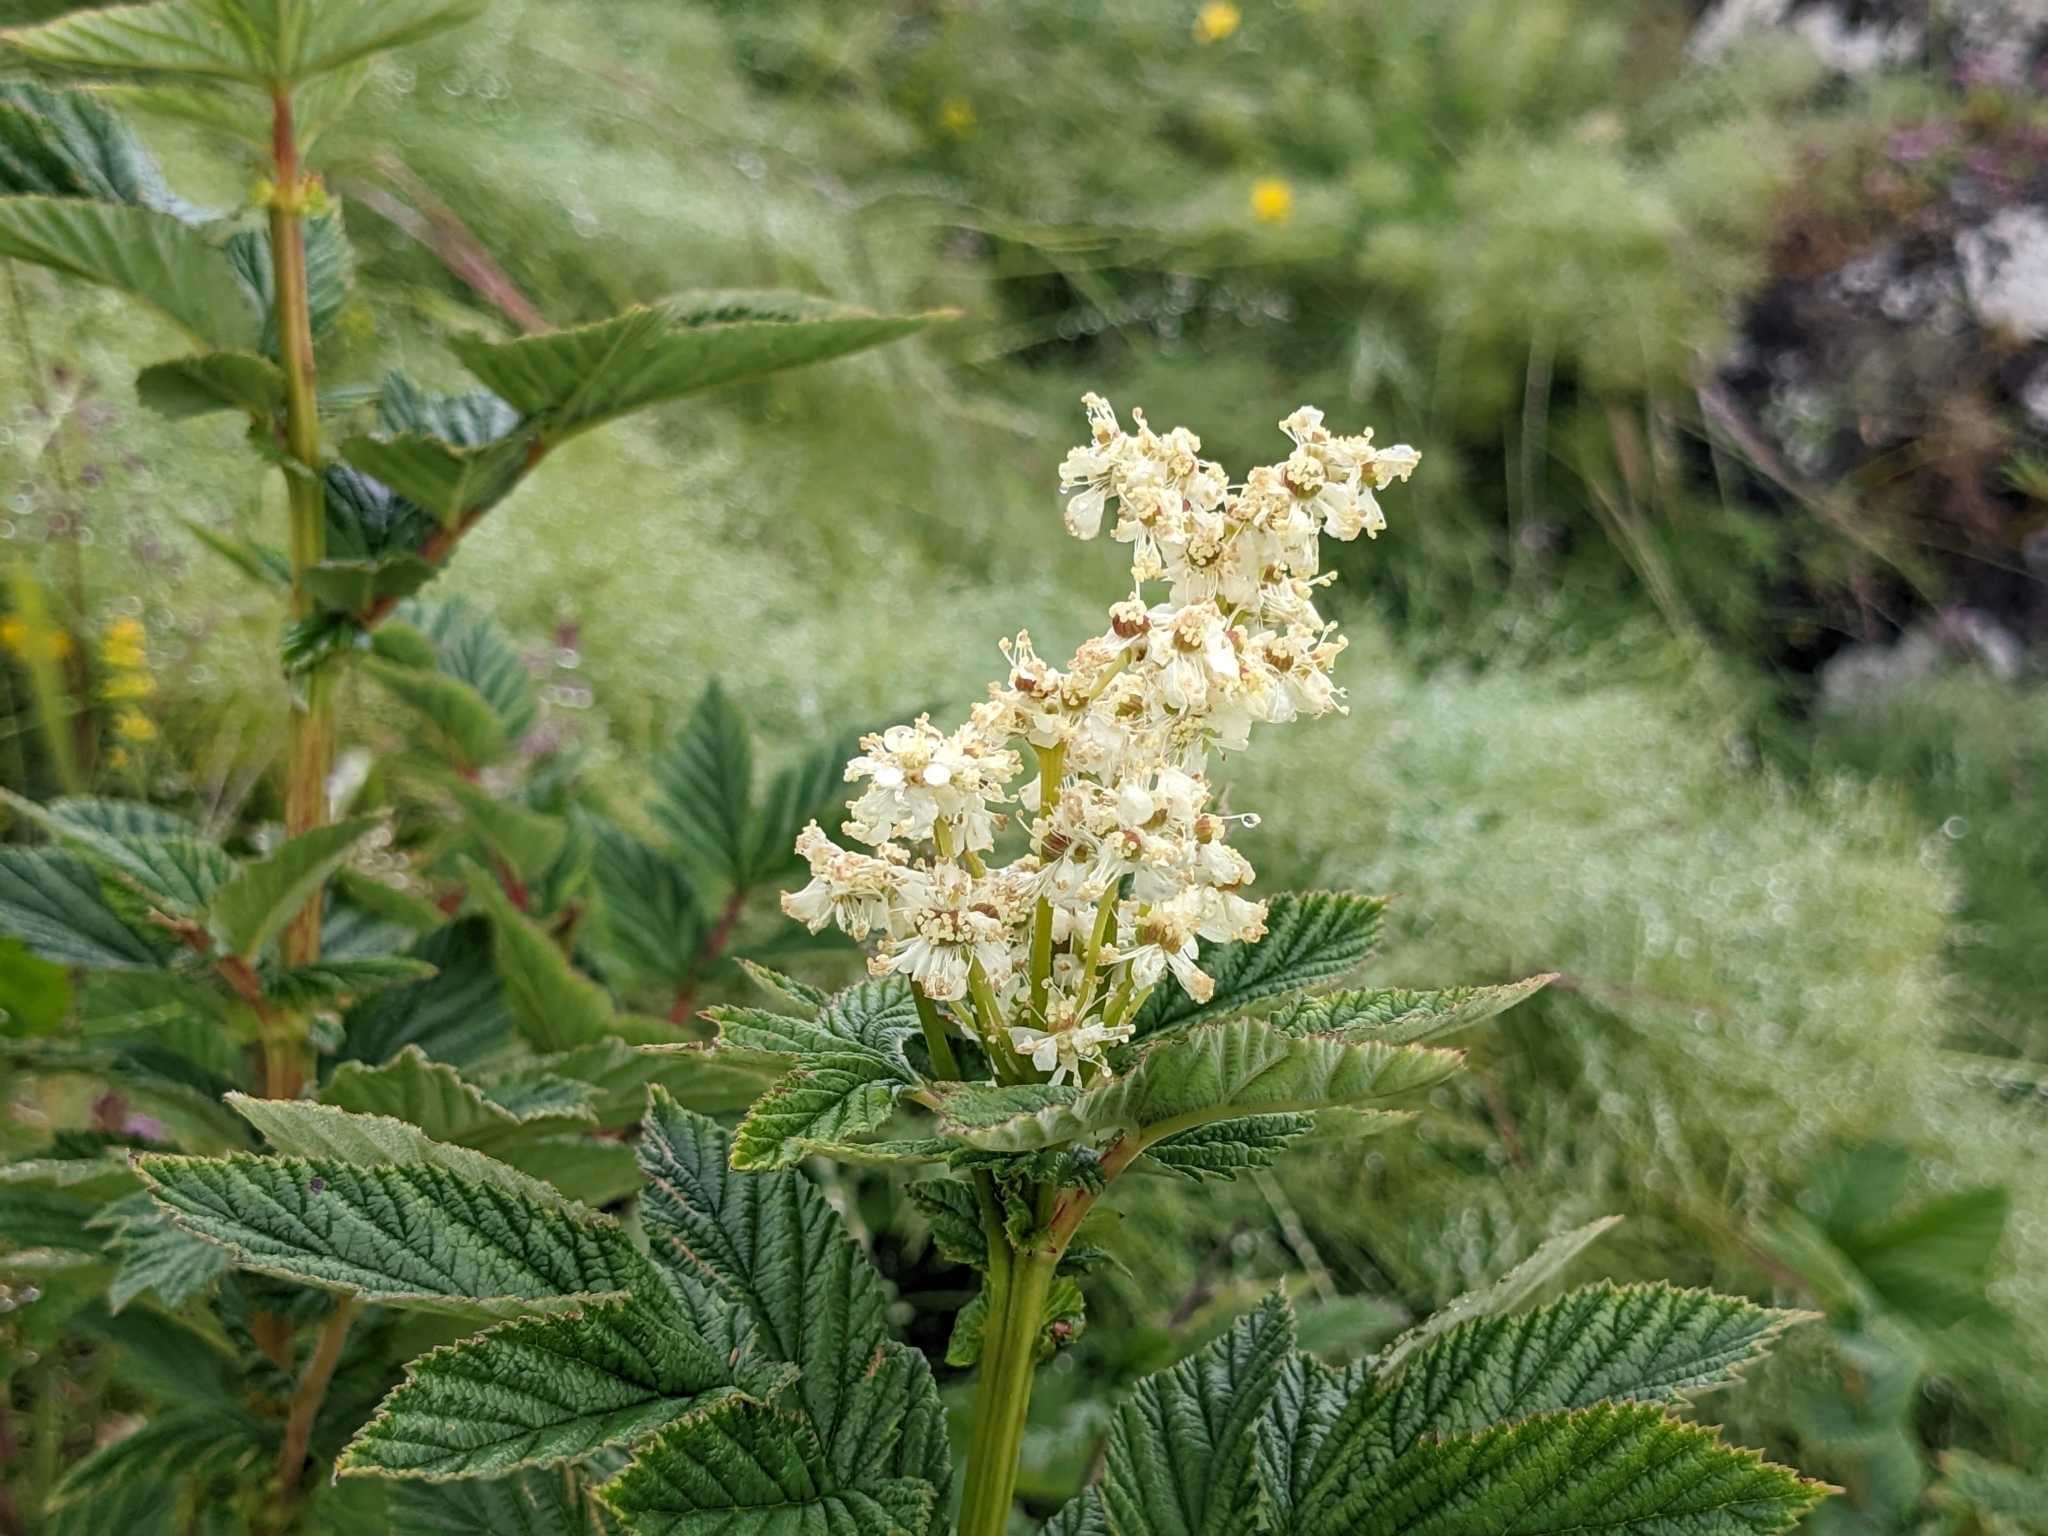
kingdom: Plantae
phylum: Tracheophyta
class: Magnoliopsida
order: Rosales
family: Rosaceae
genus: Filipendula
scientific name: Filipendula ulmaria
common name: Meadowsweet
